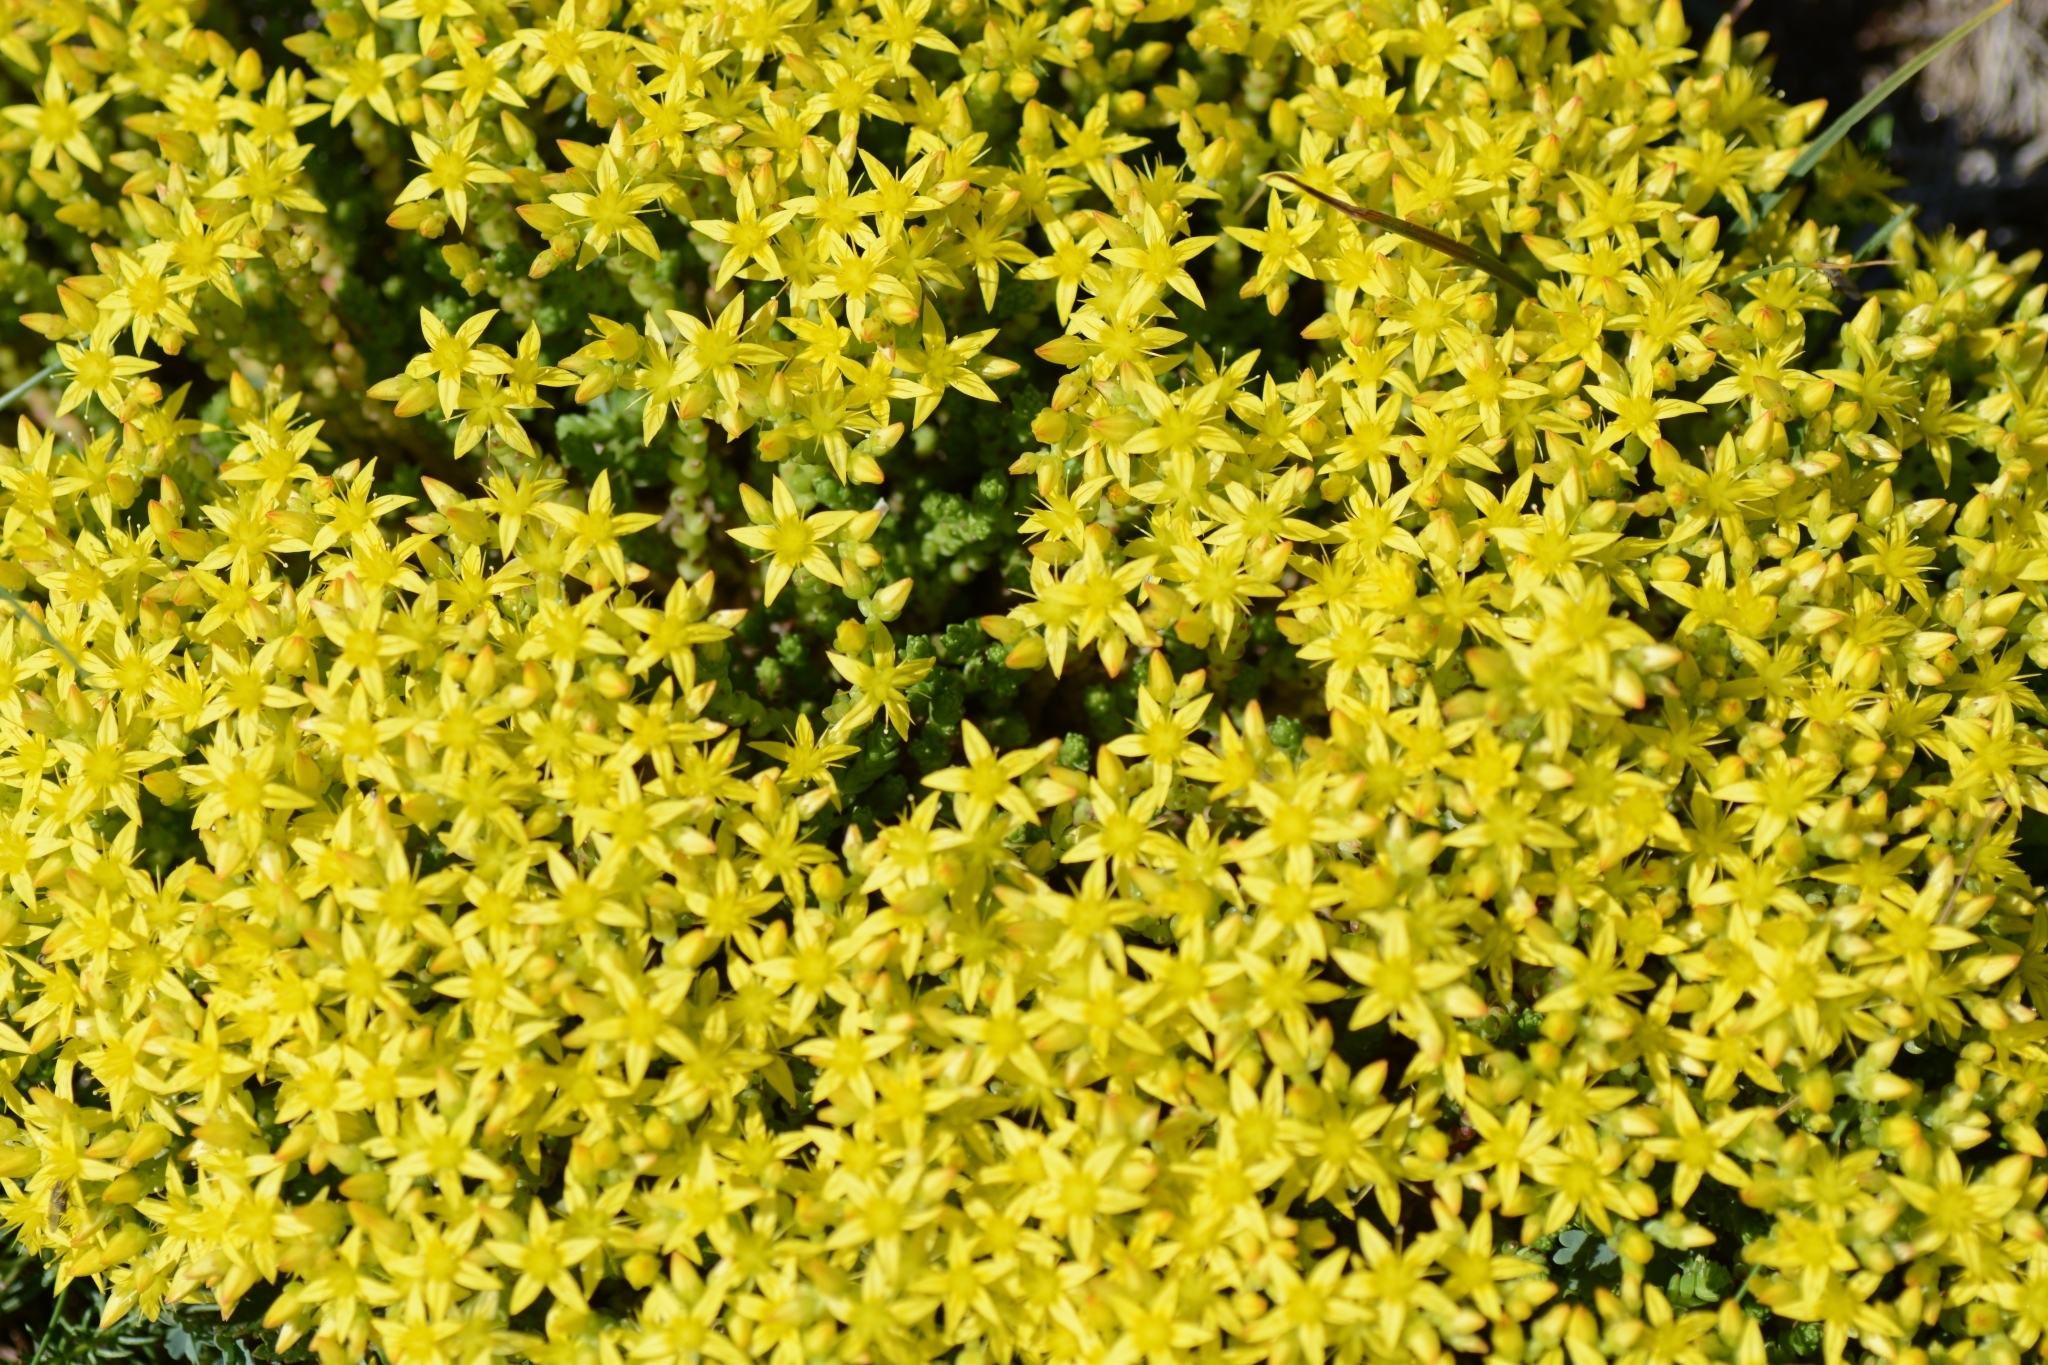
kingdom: Plantae
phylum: Tracheophyta
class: Magnoliopsida
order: Saxifragales
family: Crassulaceae
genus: Sedum
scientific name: Sedum acre
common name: Biting stonecrop
